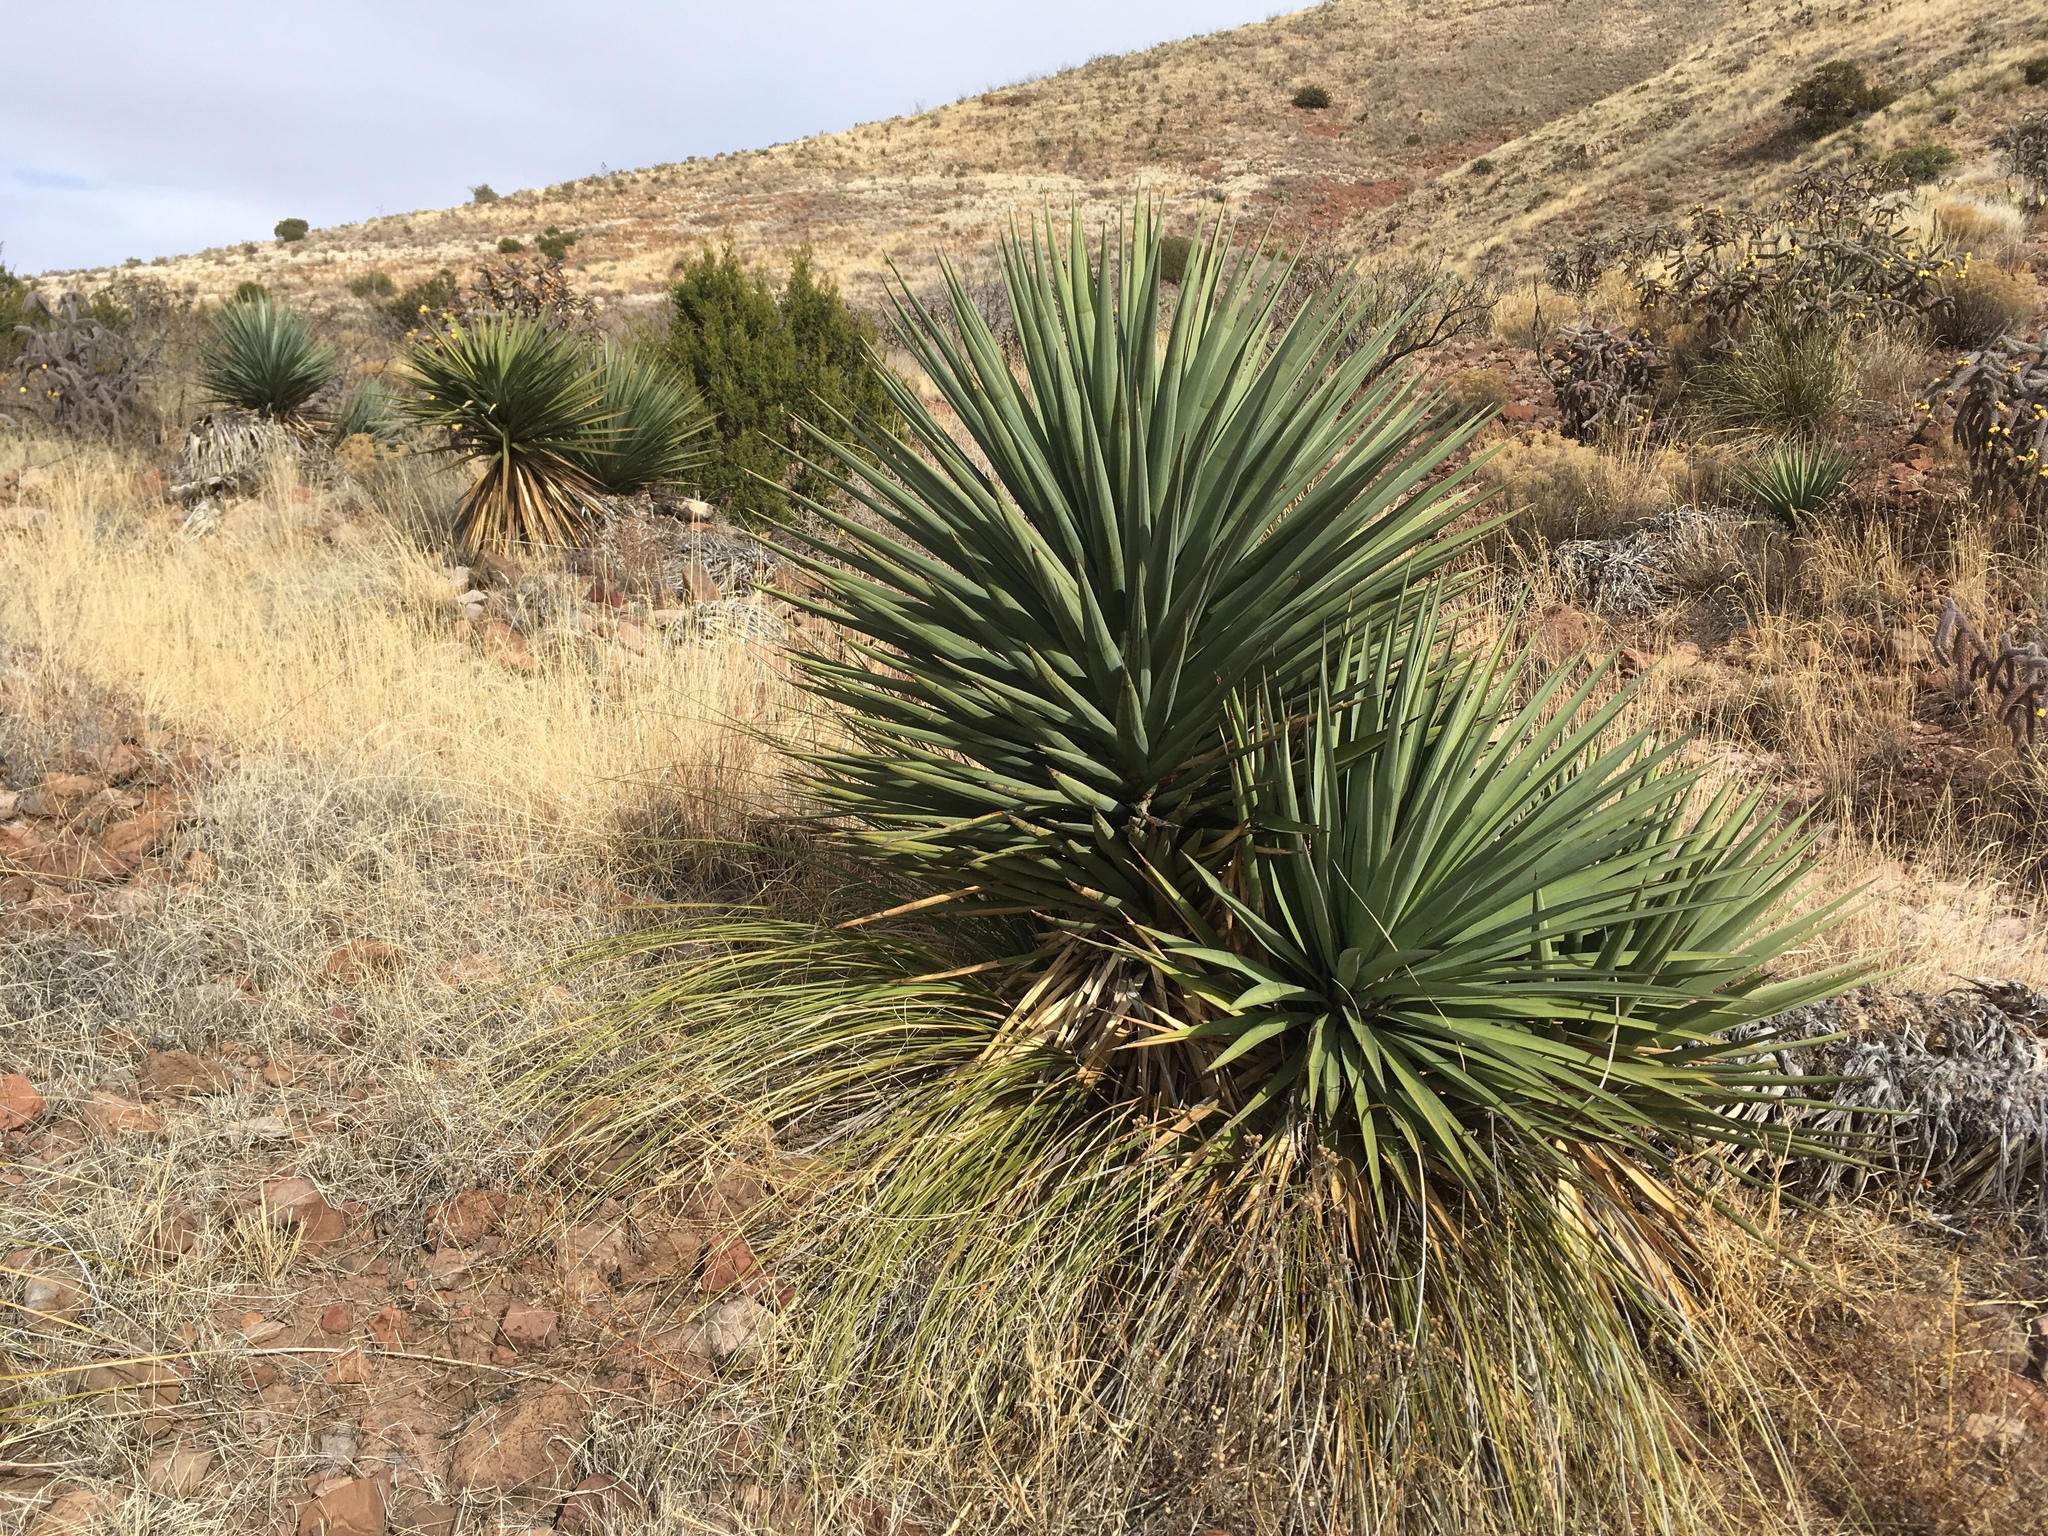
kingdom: Plantae
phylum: Tracheophyta
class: Liliopsida
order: Asparagales
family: Asparagaceae
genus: Yucca
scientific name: Yucca madrensis
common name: Hoary yucca
